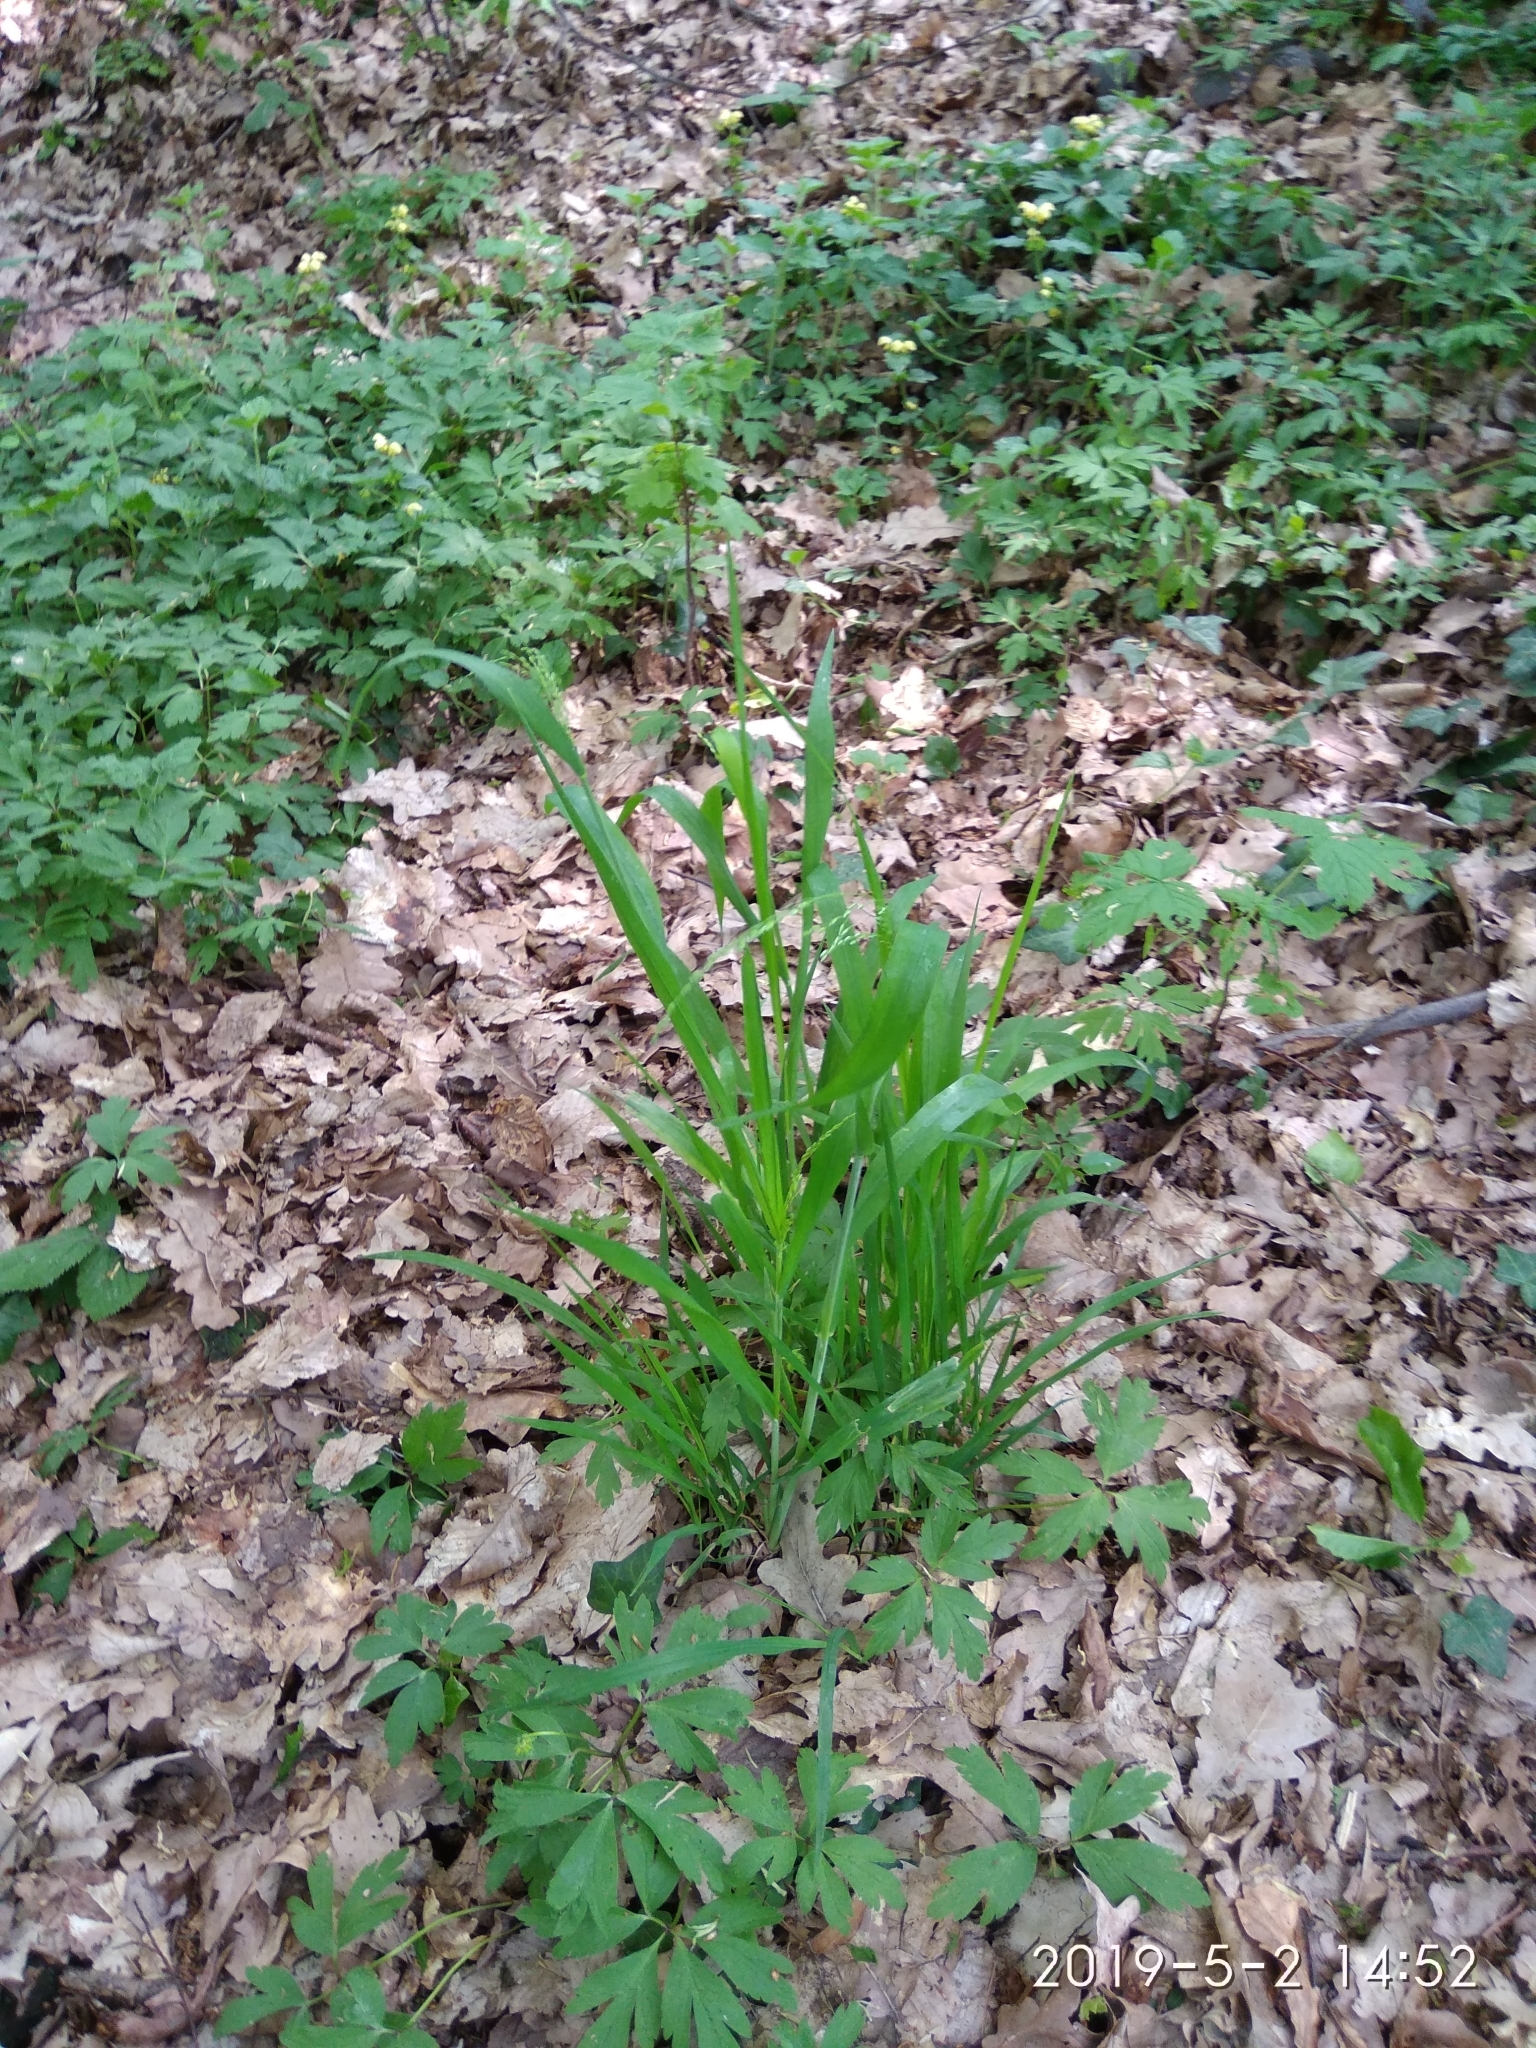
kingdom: Plantae
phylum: Tracheophyta
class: Liliopsida
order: Poales
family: Poaceae
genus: Milium
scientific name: Milium effusum
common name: Wood millet
